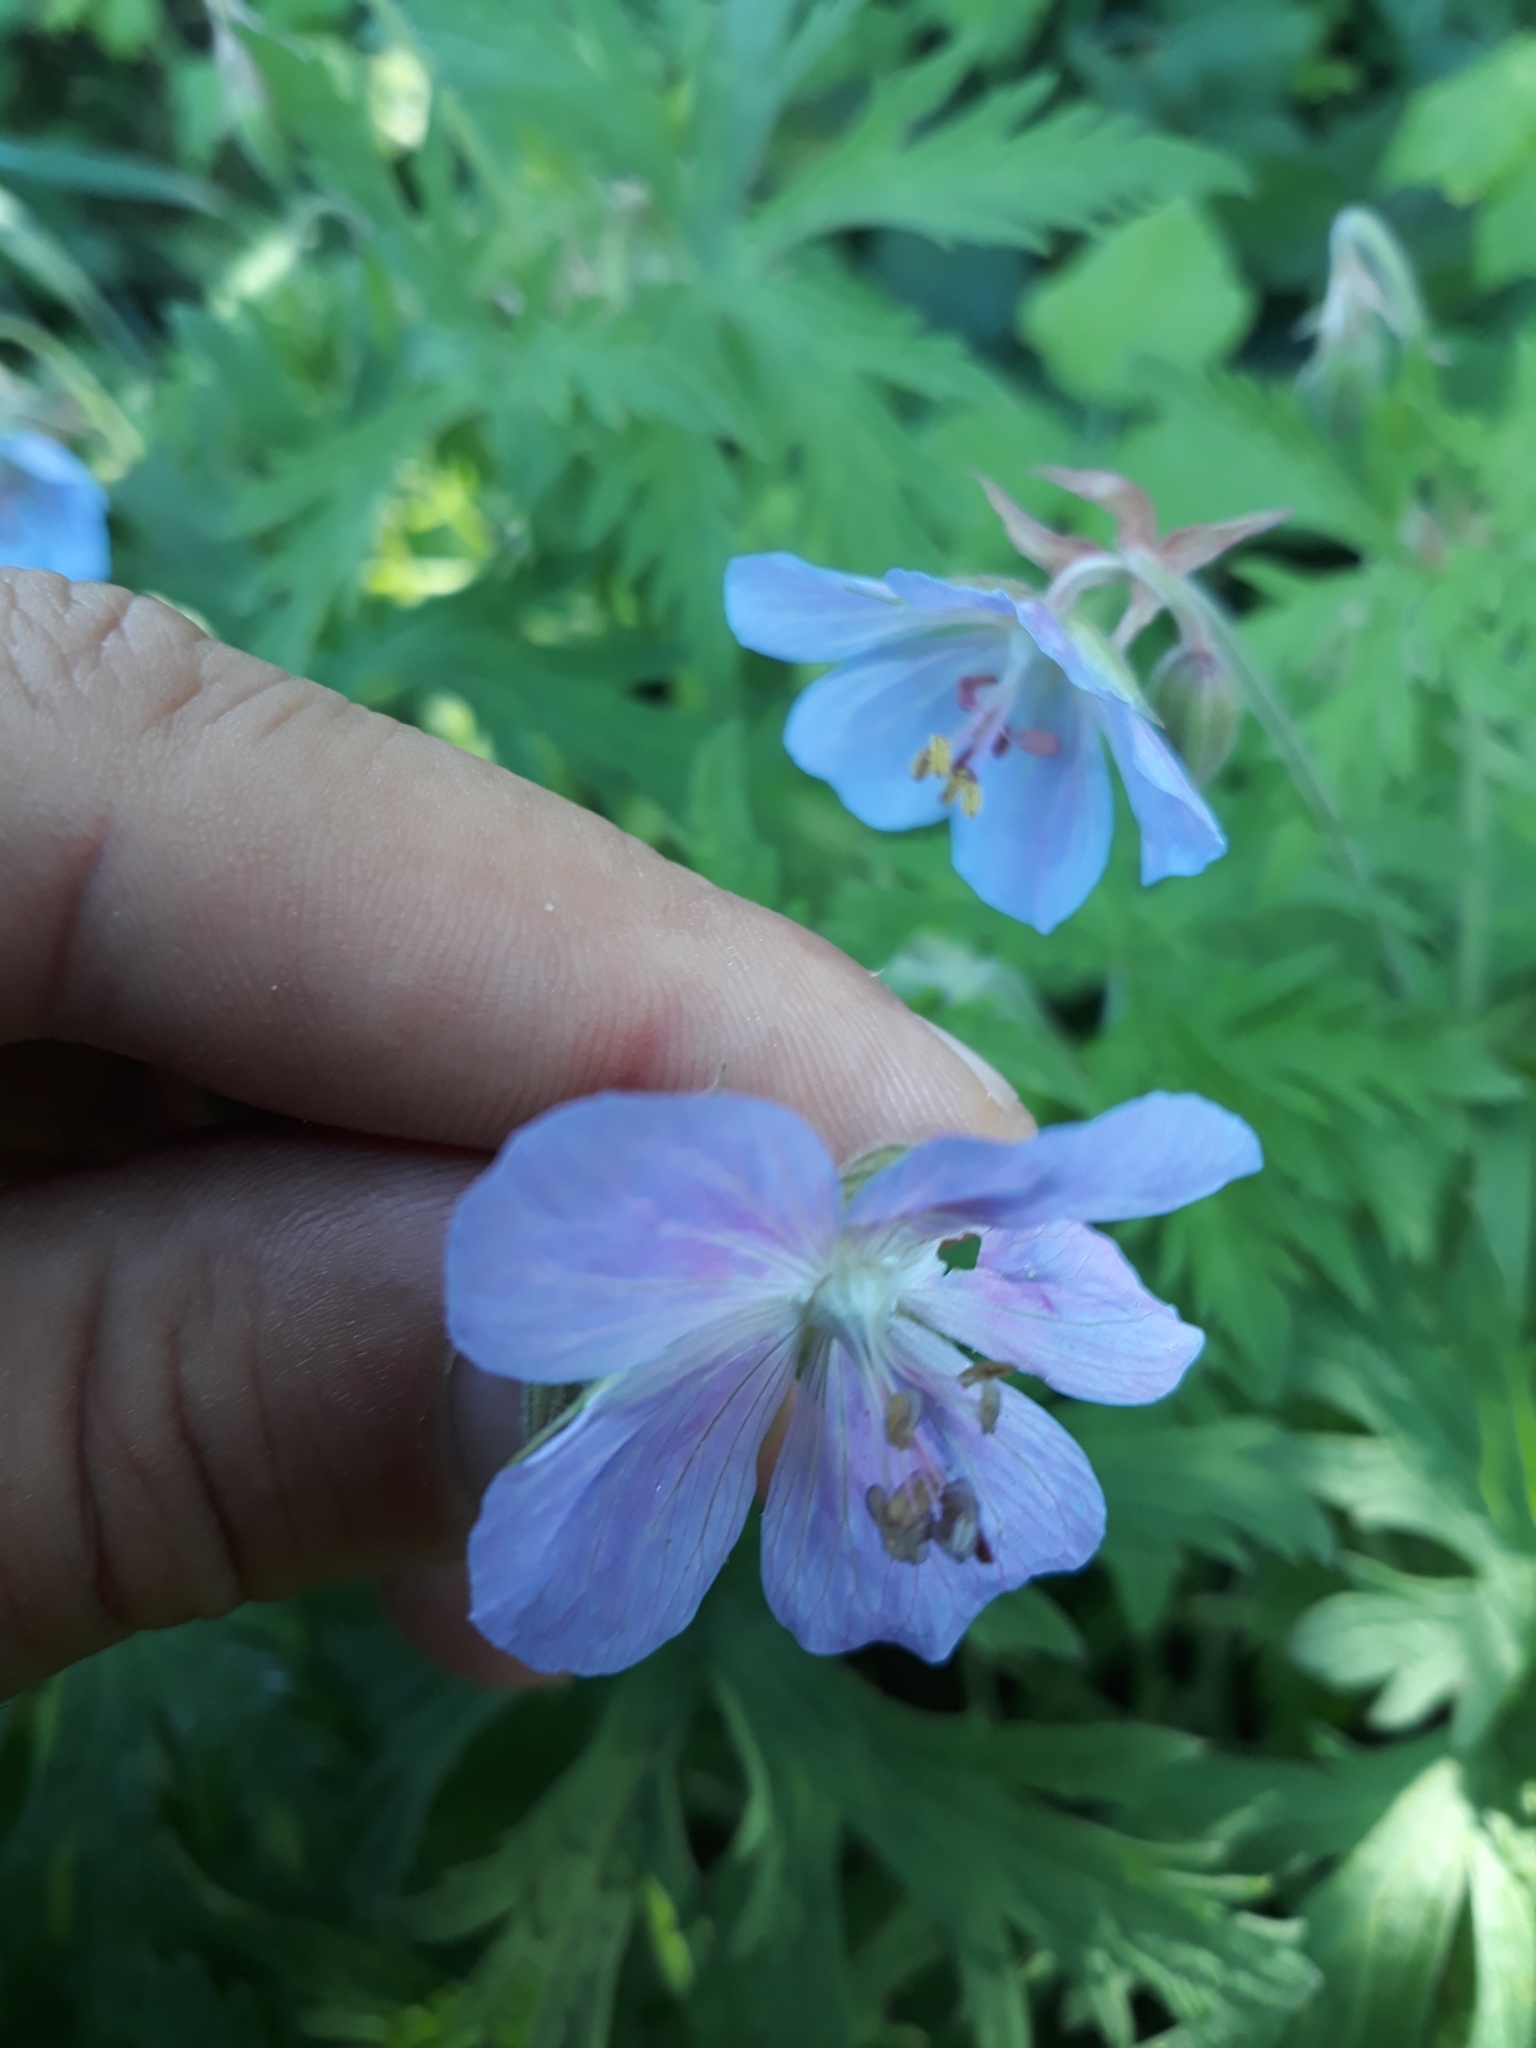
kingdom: Plantae
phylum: Tracheophyta
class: Magnoliopsida
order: Geraniales
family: Geraniaceae
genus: Geranium
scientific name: Geranium pratense
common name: Meadow crane's-bill
